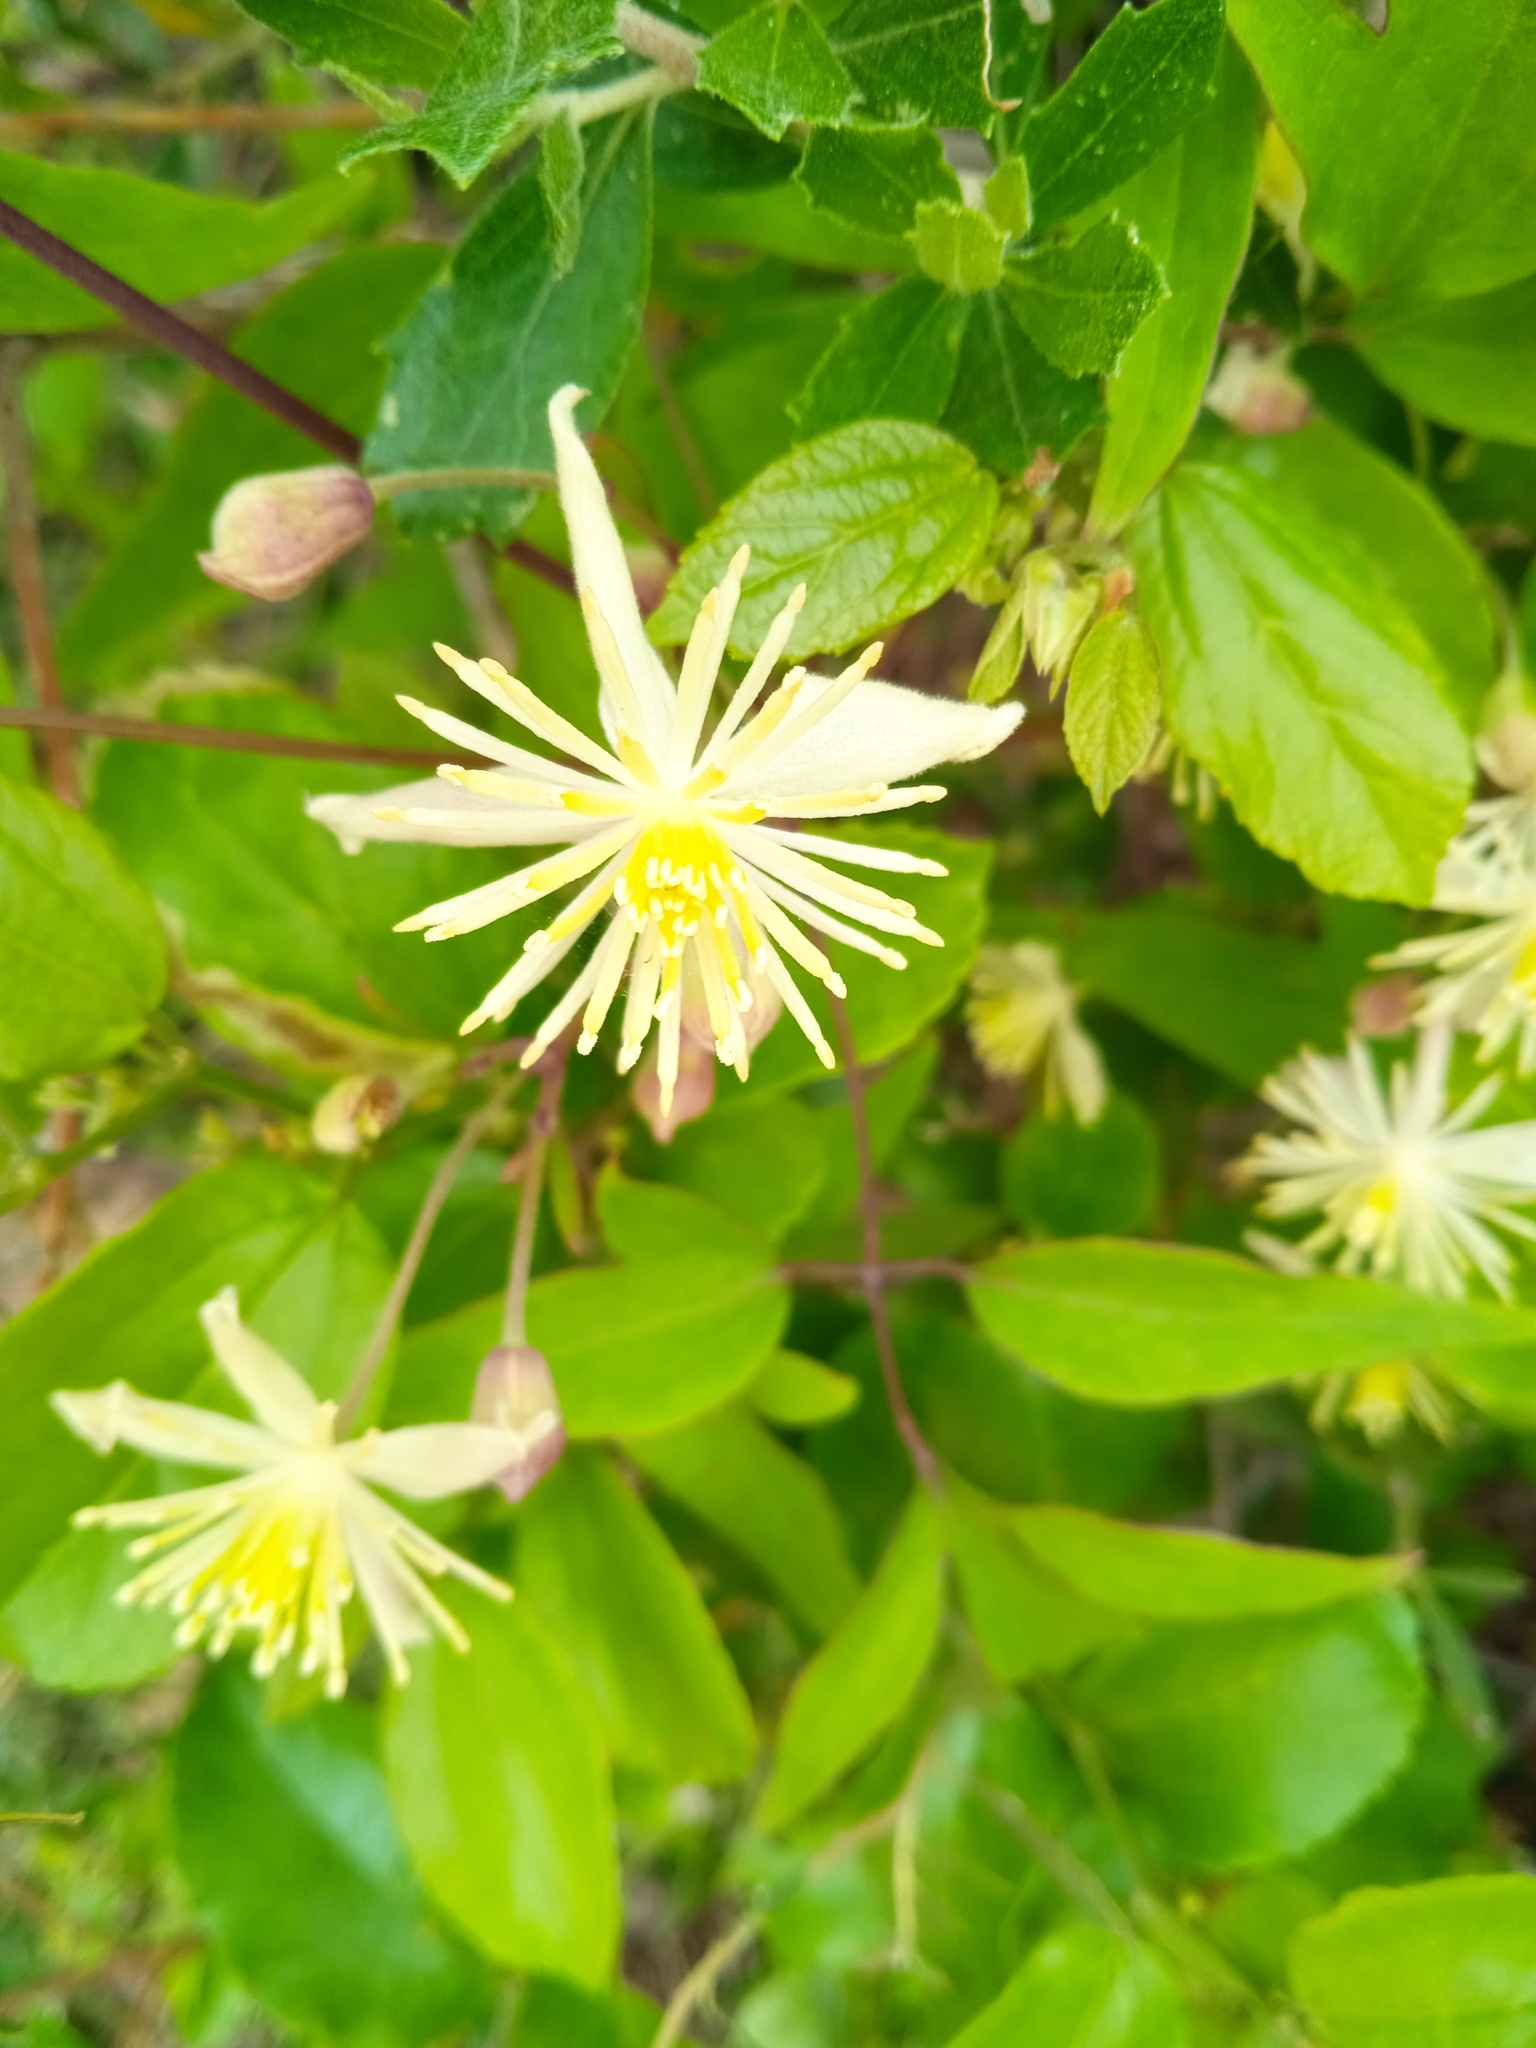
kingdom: Plantae
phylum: Tracheophyta
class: Magnoliopsida
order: Ranunculales
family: Ranunculaceae
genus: Clematis
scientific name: Clematis montevidensis
